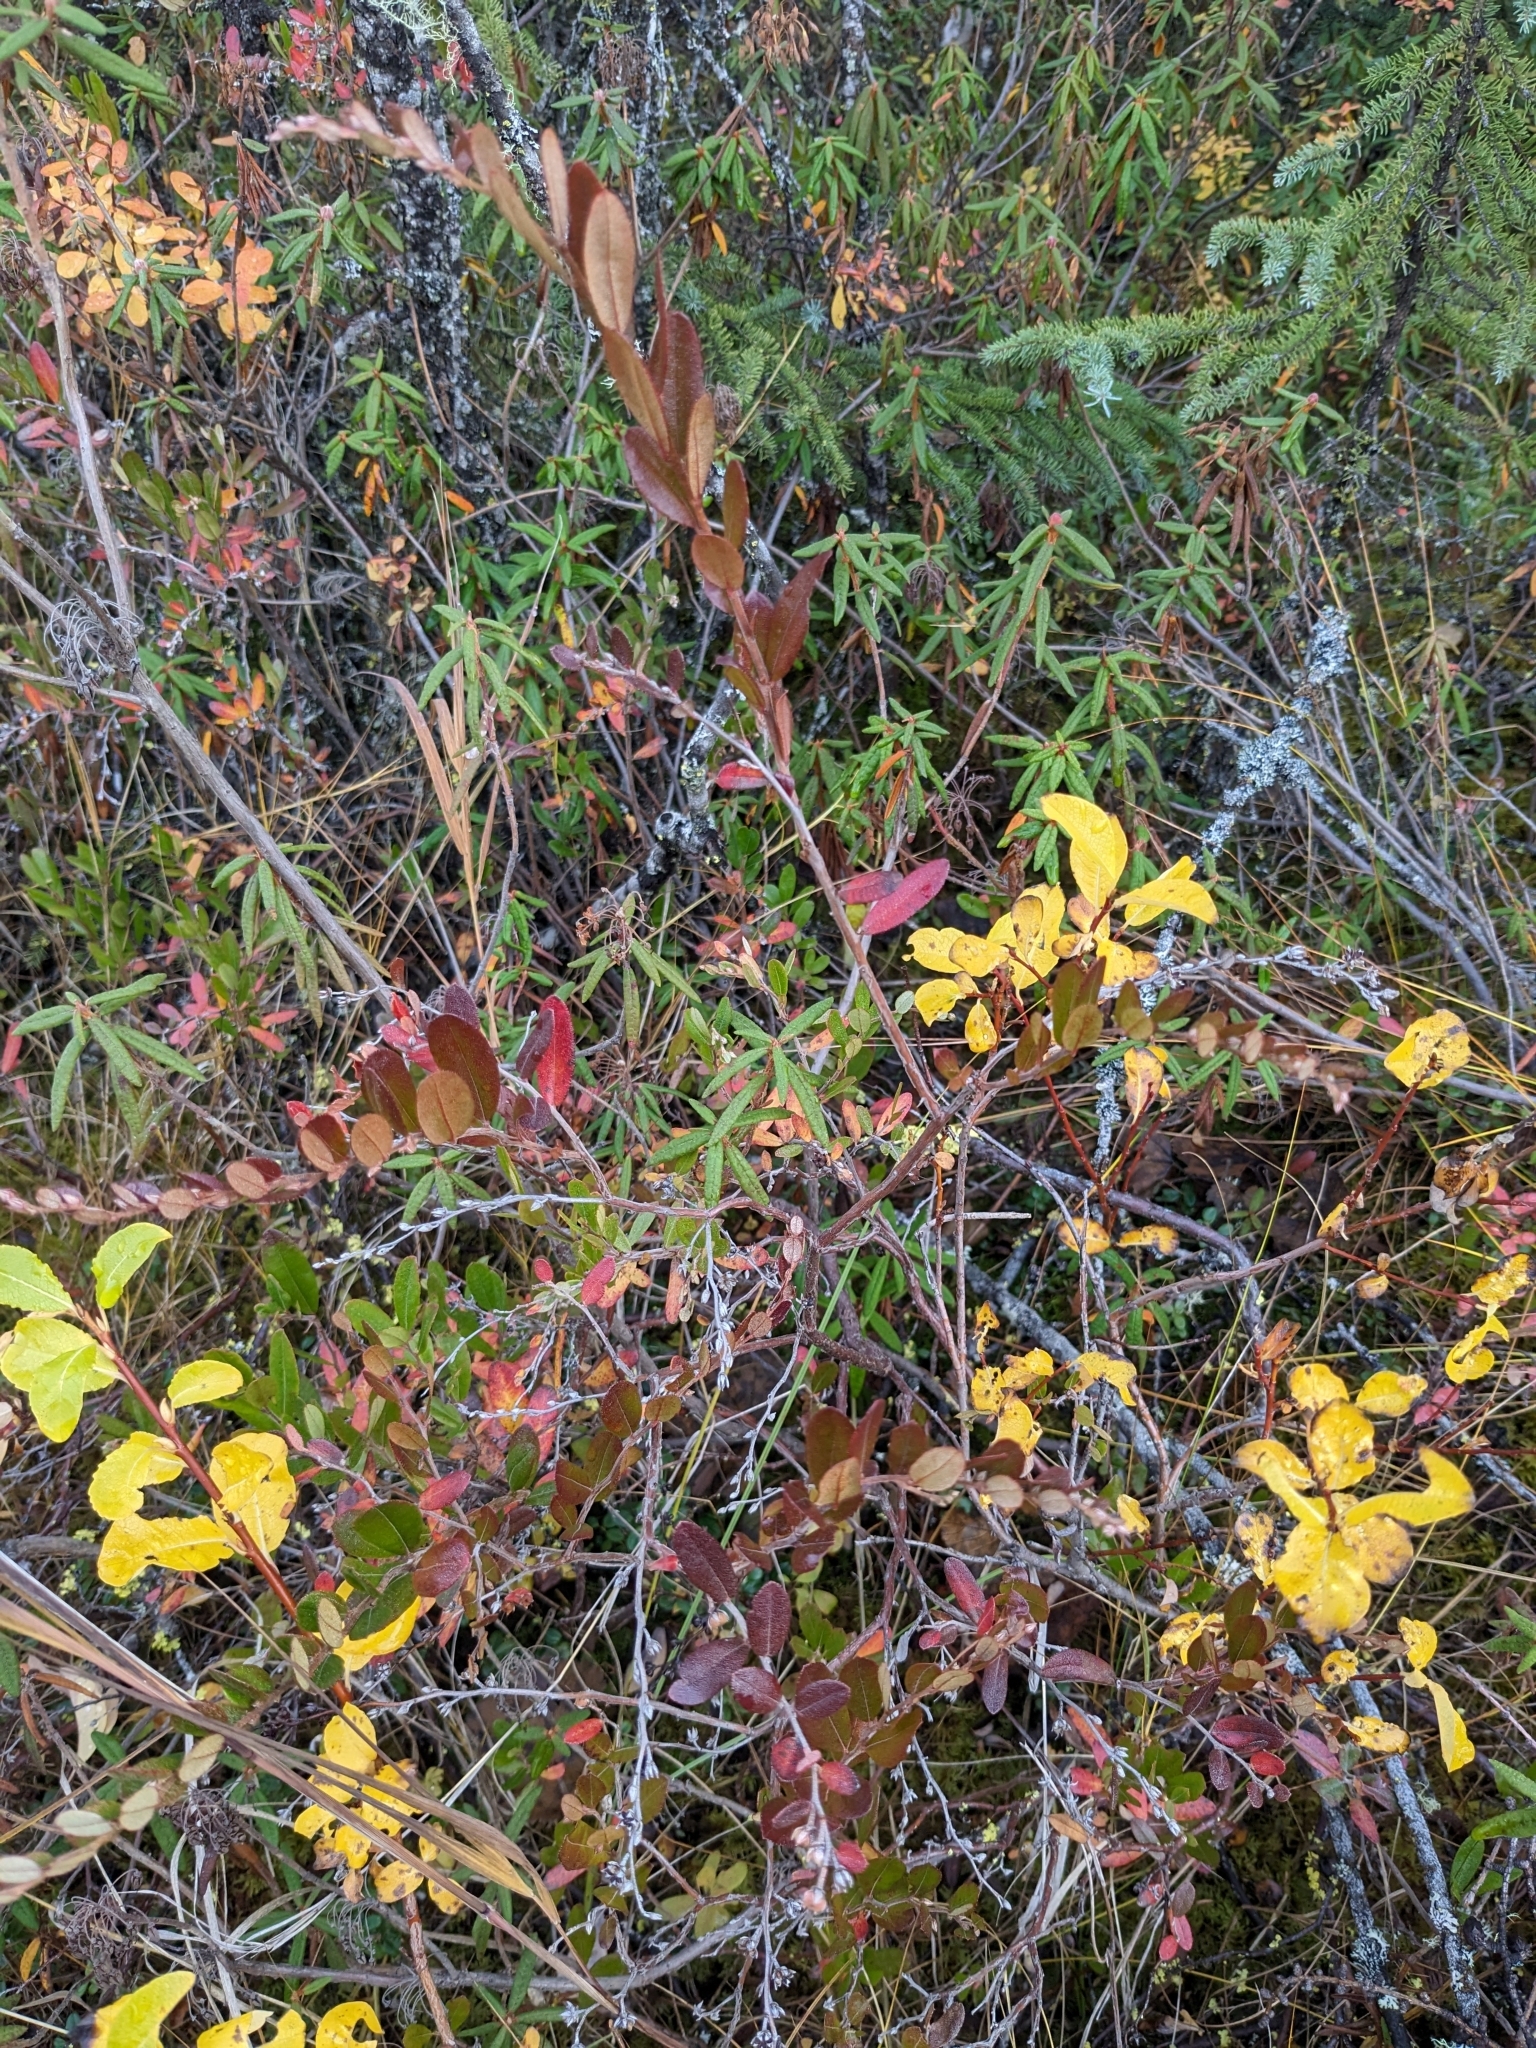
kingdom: Plantae
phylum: Tracheophyta
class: Magnoliopsida
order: Ericales
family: Ericaceae
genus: Chamaedaphne
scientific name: Chamaedaphne calyculata
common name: Leatherleaf
